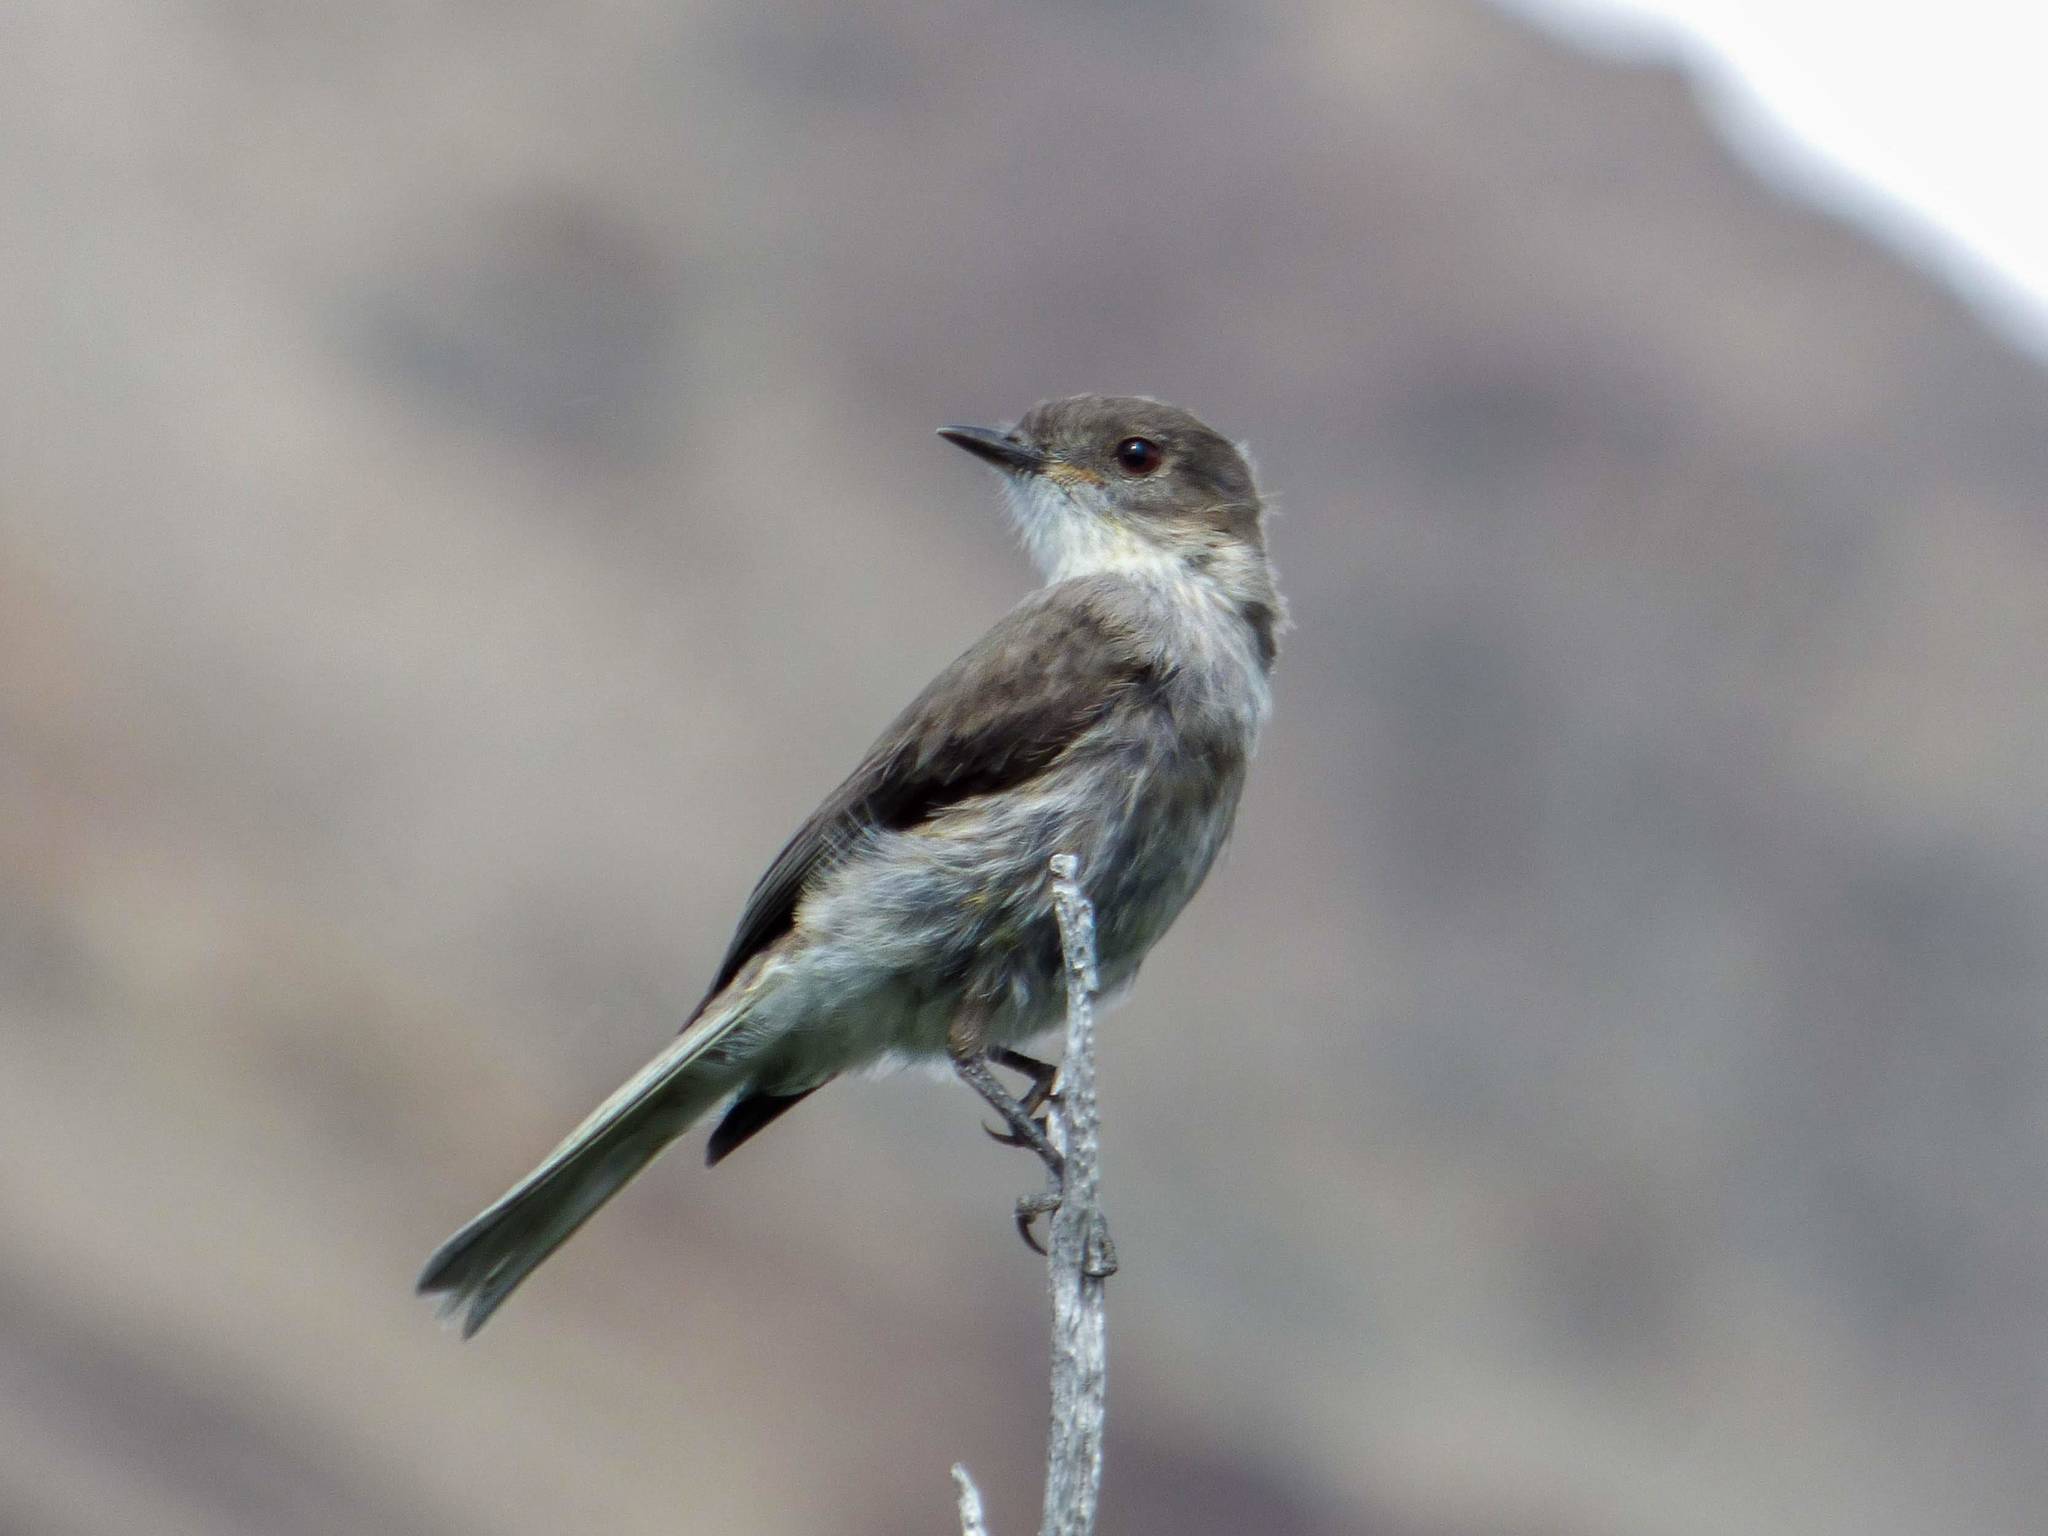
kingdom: Animalia
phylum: Chordata
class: Aves
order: Passeriformes
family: Tyrannidae
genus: Xolmis
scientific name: Xolmis pyrope
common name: Fire-eyed diucon
